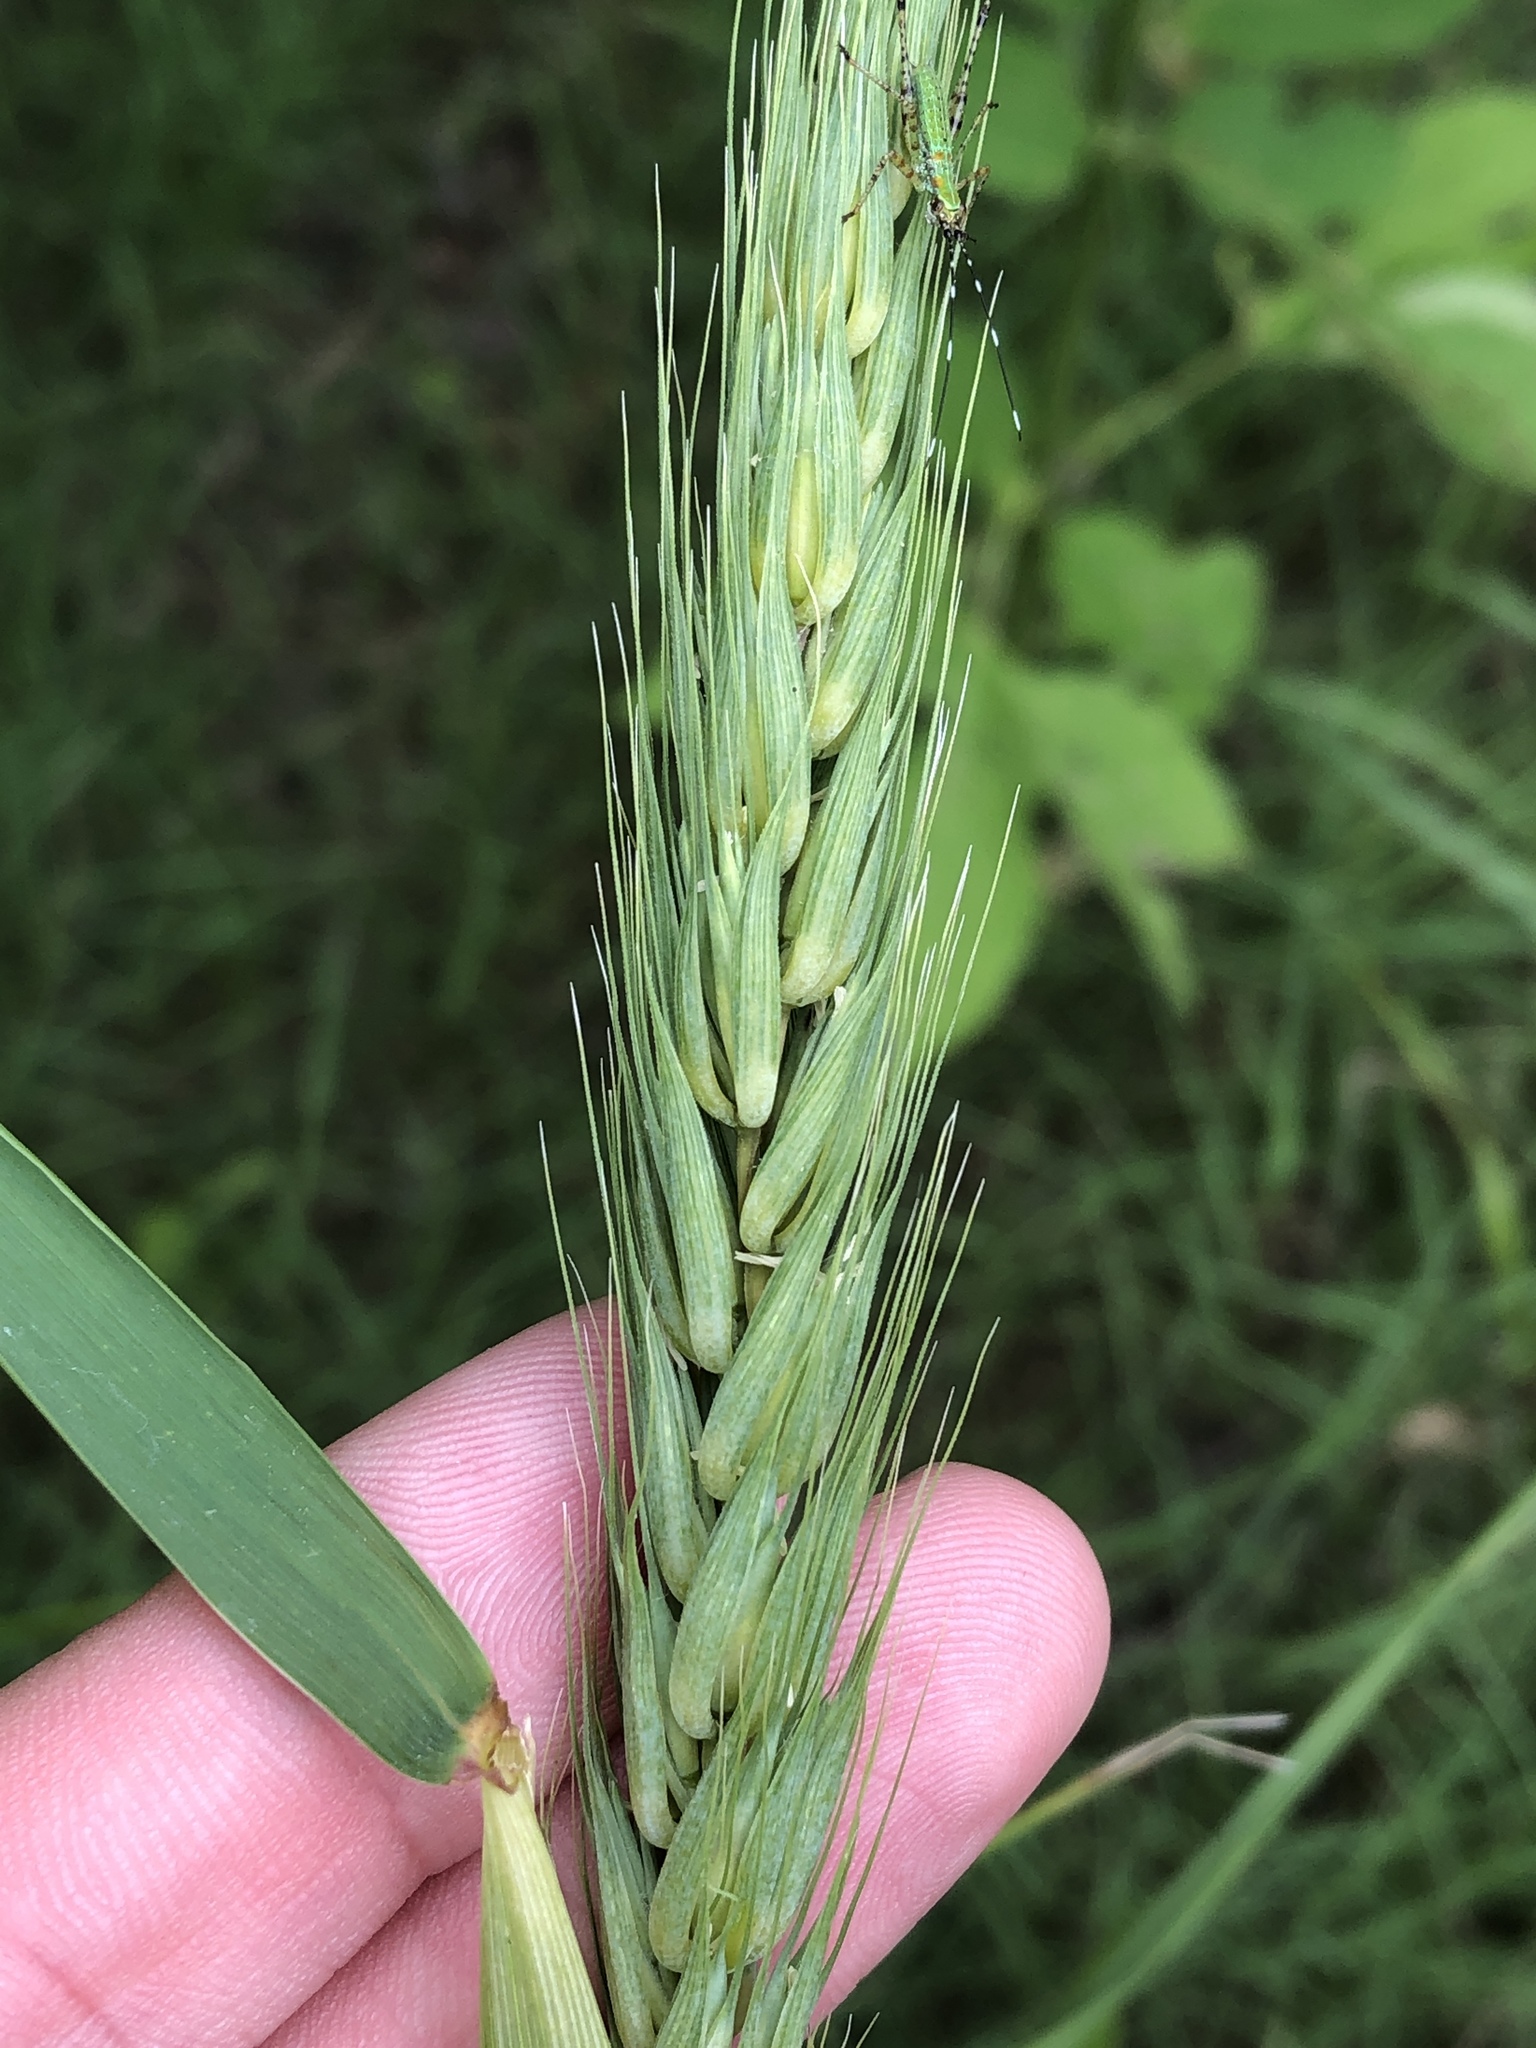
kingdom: Plantae
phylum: Tracheophyta
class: Liliopsida
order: Poales
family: Poaceae
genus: Elymus
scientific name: Elymus virginicus
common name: Common eastern wildrye
